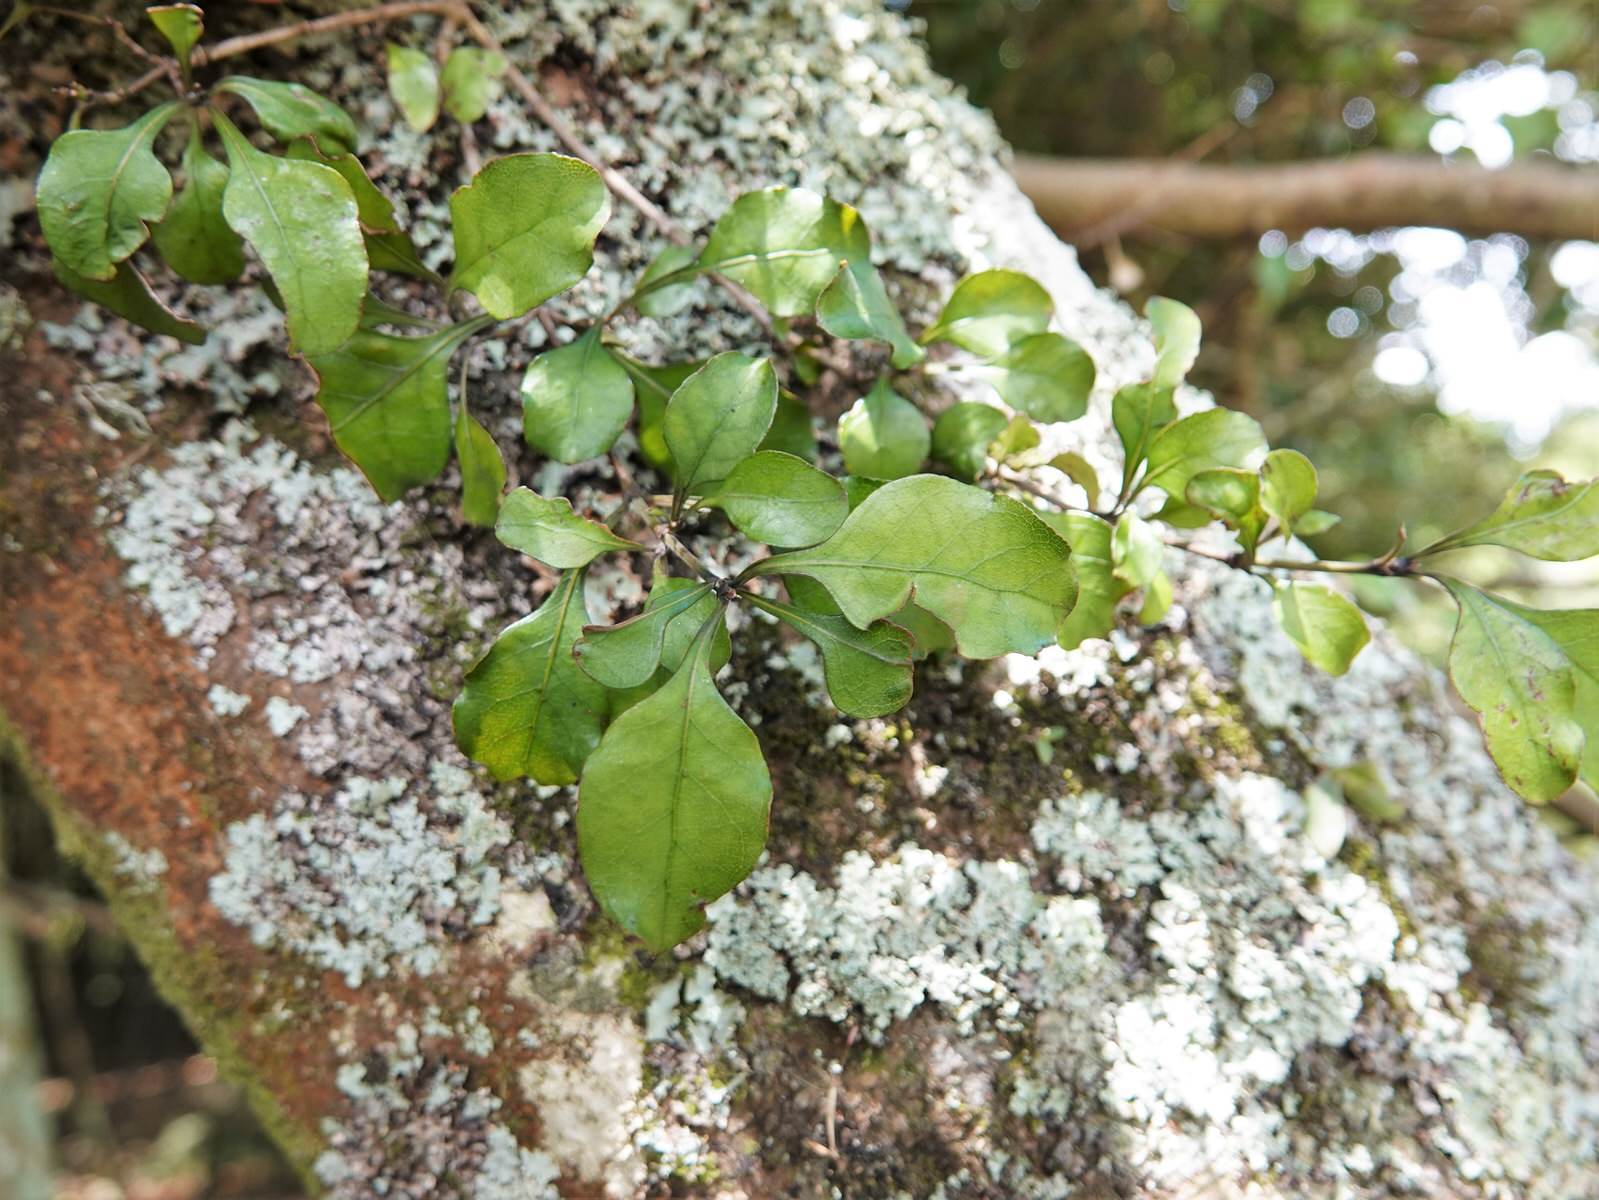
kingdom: Plantae
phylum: Tracheophyta
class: Magnoliopsida
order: Gentianales
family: Rubiaceae
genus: Coprosma
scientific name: Coprosma arborea
